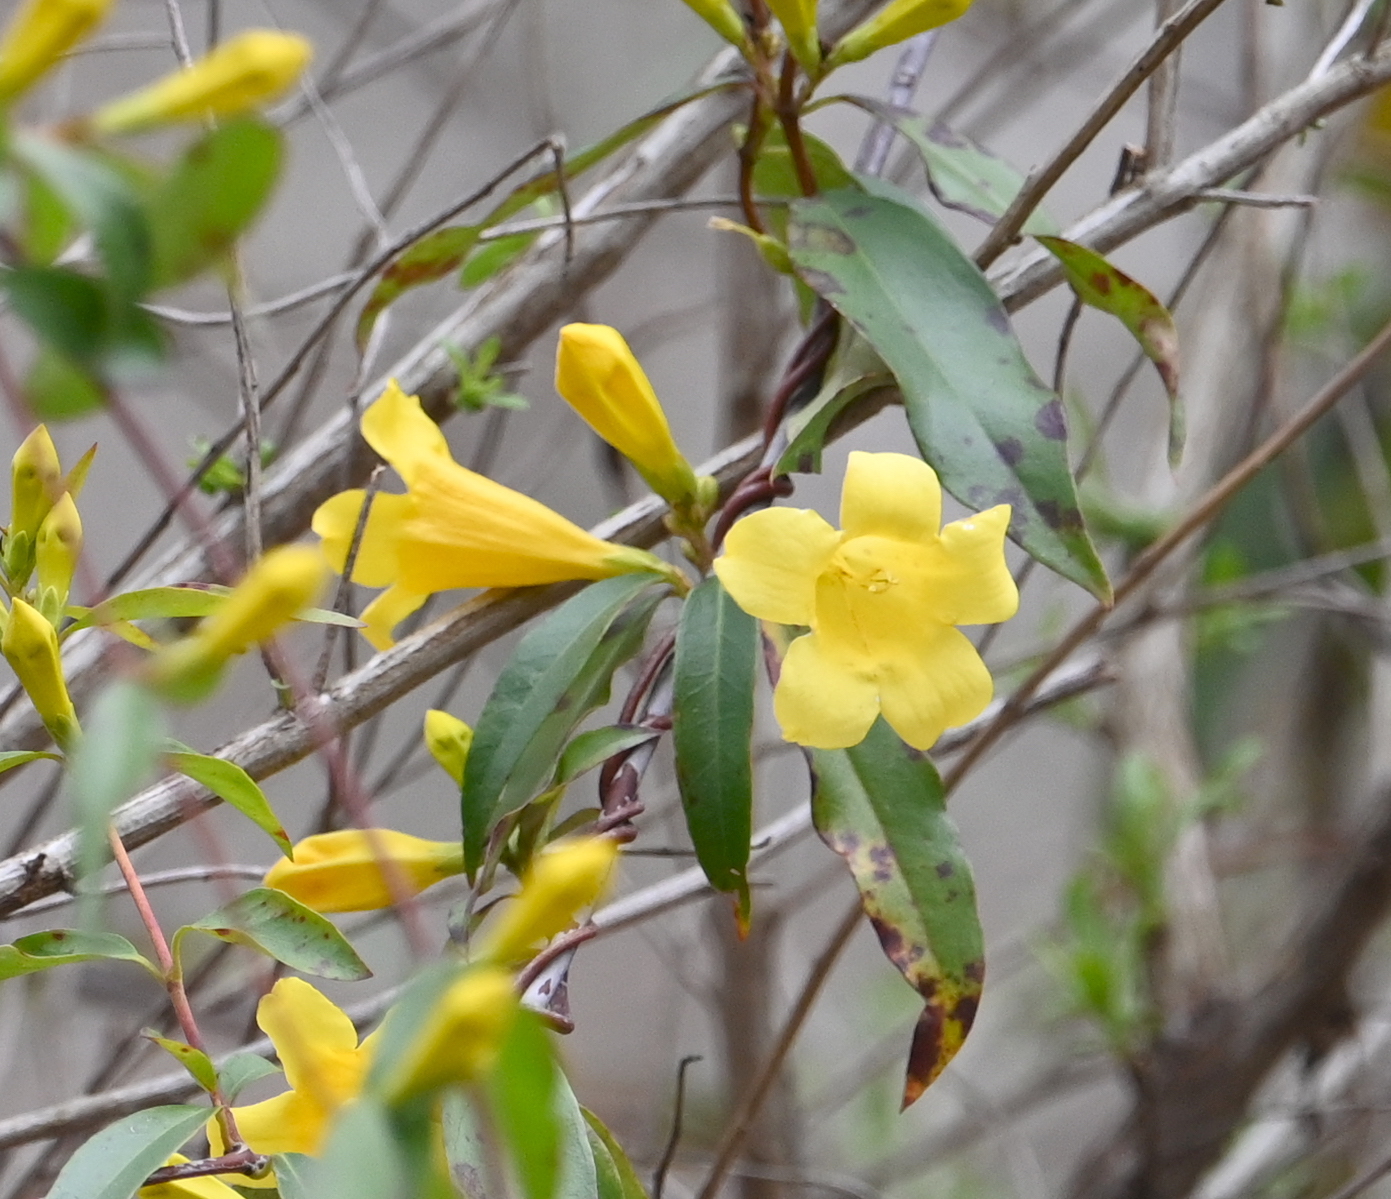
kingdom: Plantae
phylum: Tracheophyta
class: Magnoliopsida
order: Gentianales
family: Gelsemiaceae
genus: Gelsemium
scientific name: Gelsemium sempervirens
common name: Carolina-jasmine
